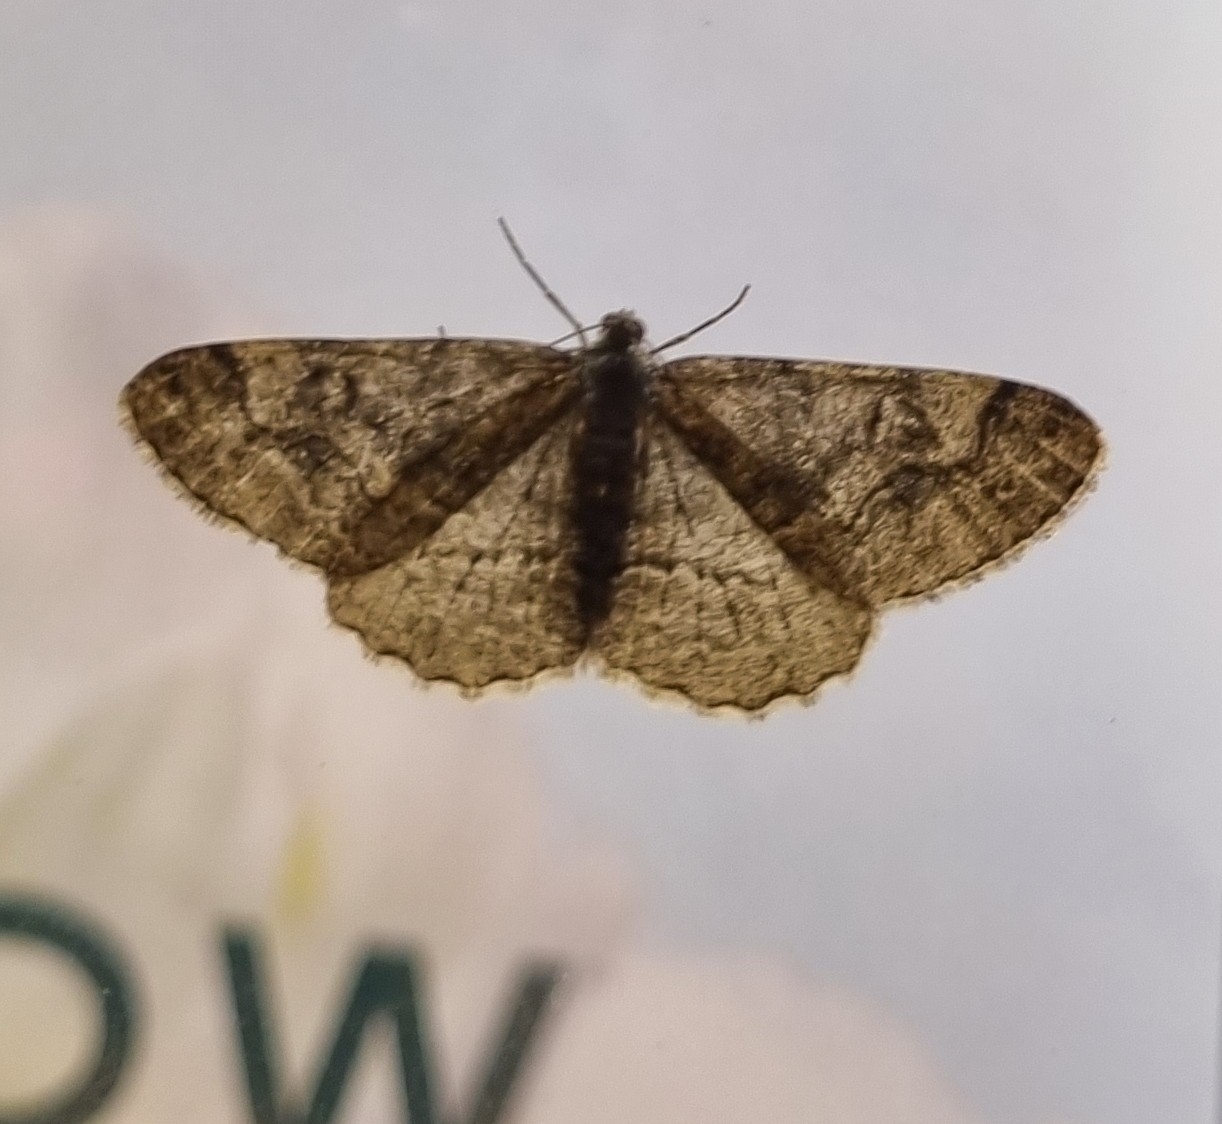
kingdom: Animalia
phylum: Arthropoda
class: Insecta
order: Lepidoptera
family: Geometridae
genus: Alcis
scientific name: Alcis repandata
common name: Mottled beauty
